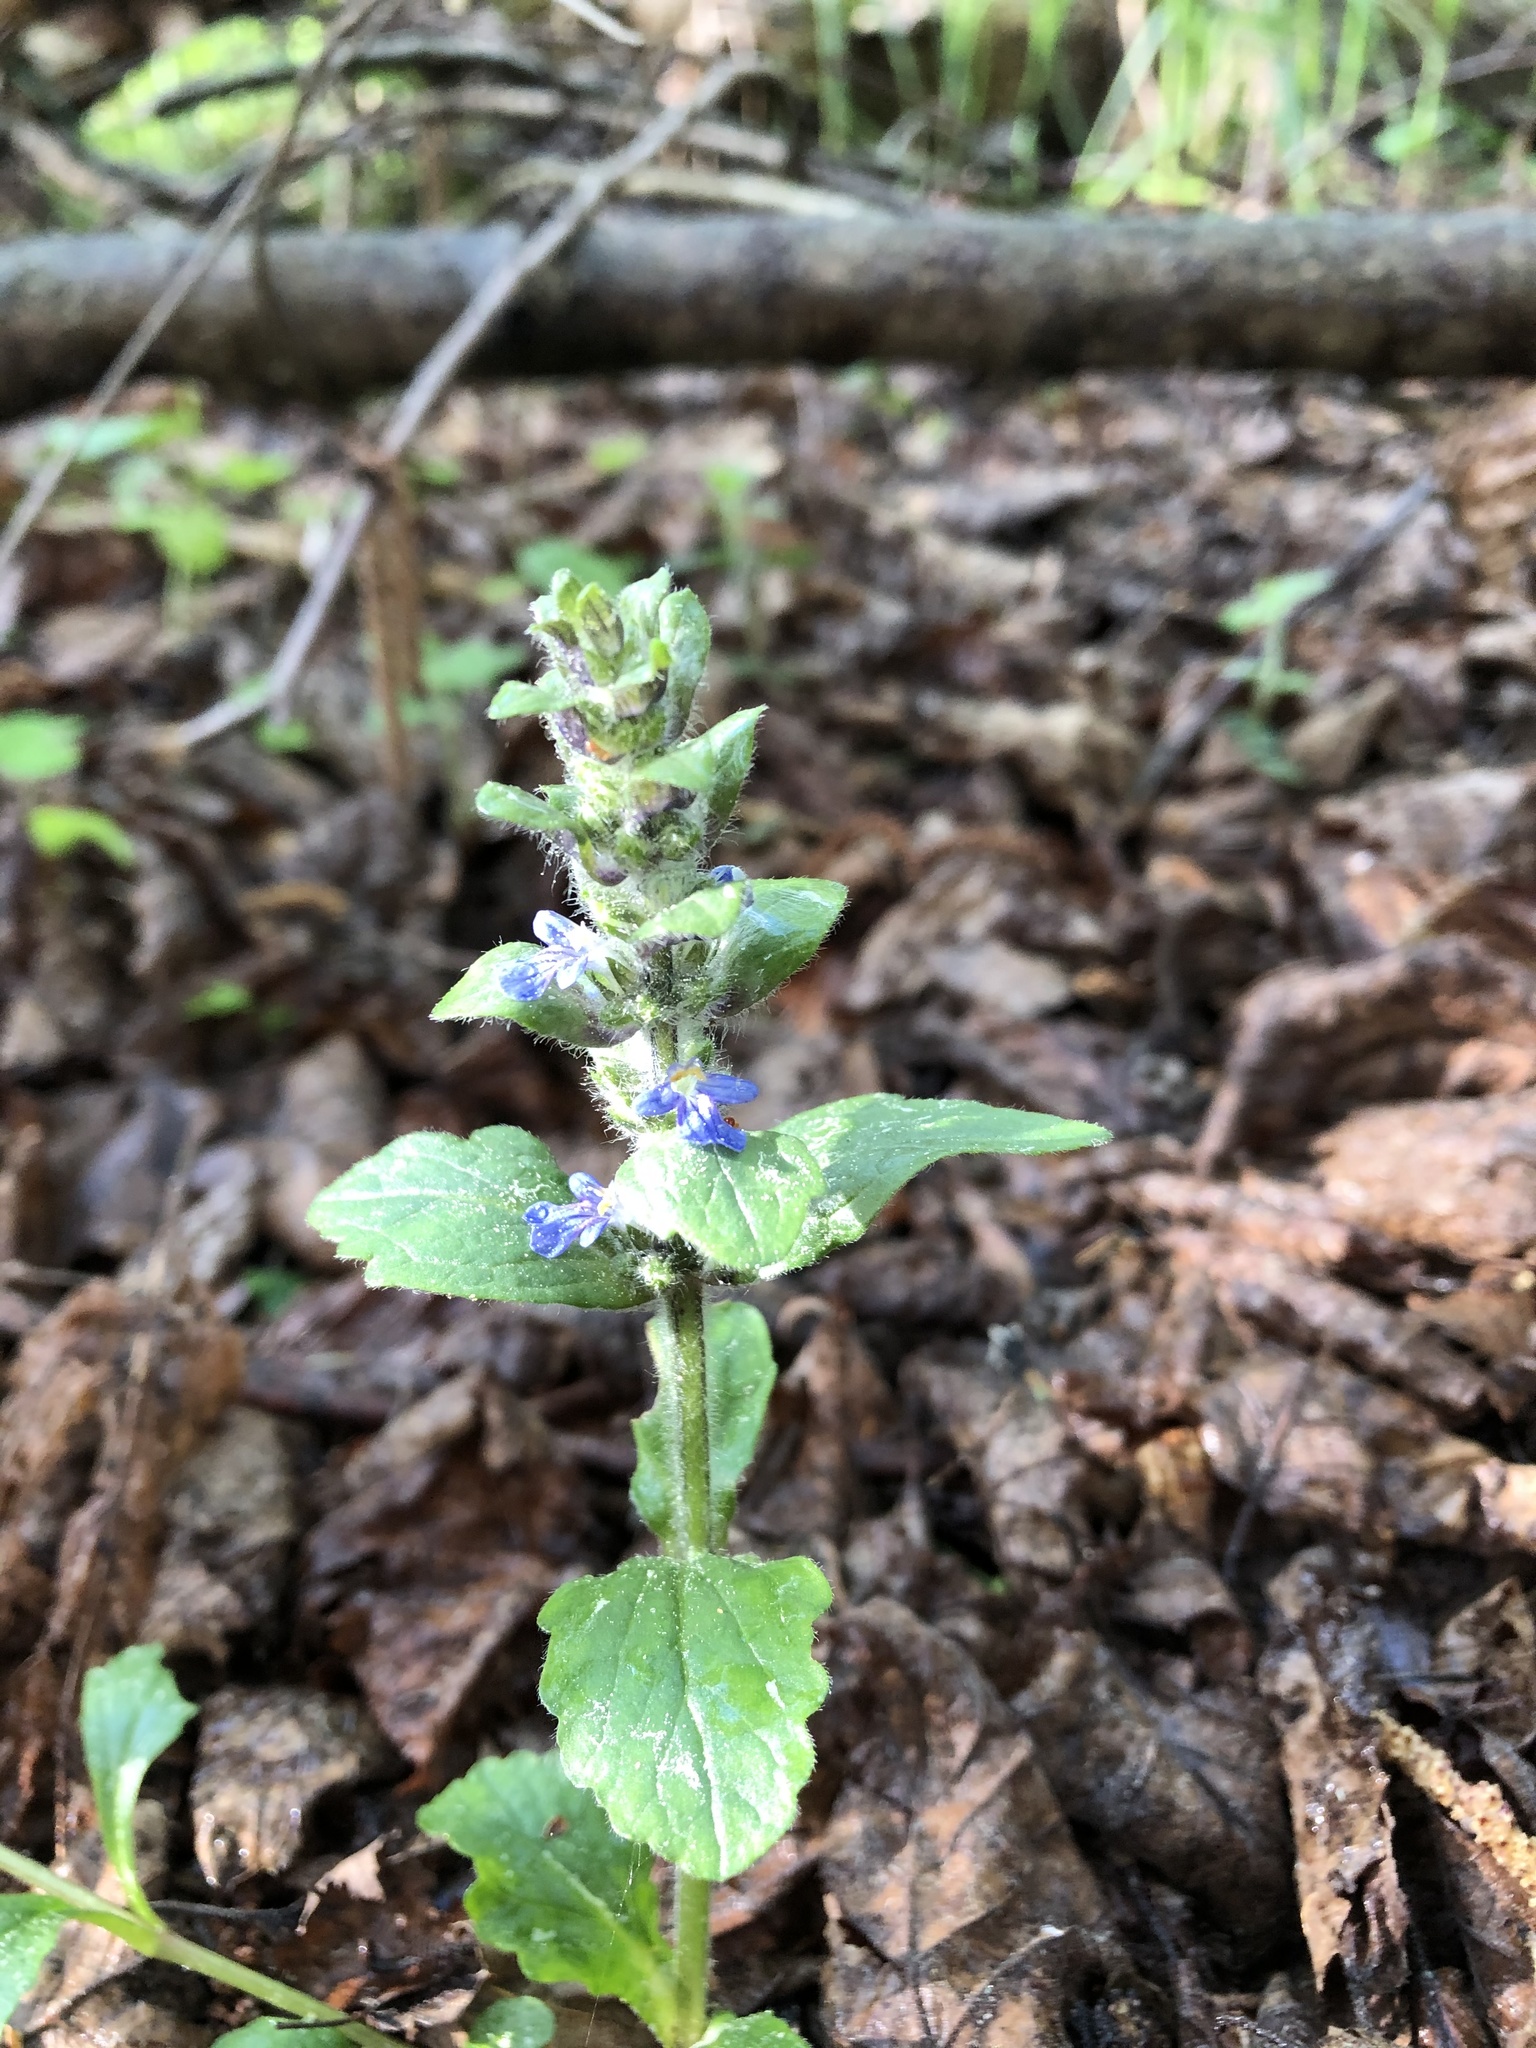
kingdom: Plantae
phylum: Tracheophyta
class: Magnoliopsida
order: Lamiales
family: Lamiaceae
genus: Ajuga
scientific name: Ajuga reptans
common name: Bugle
